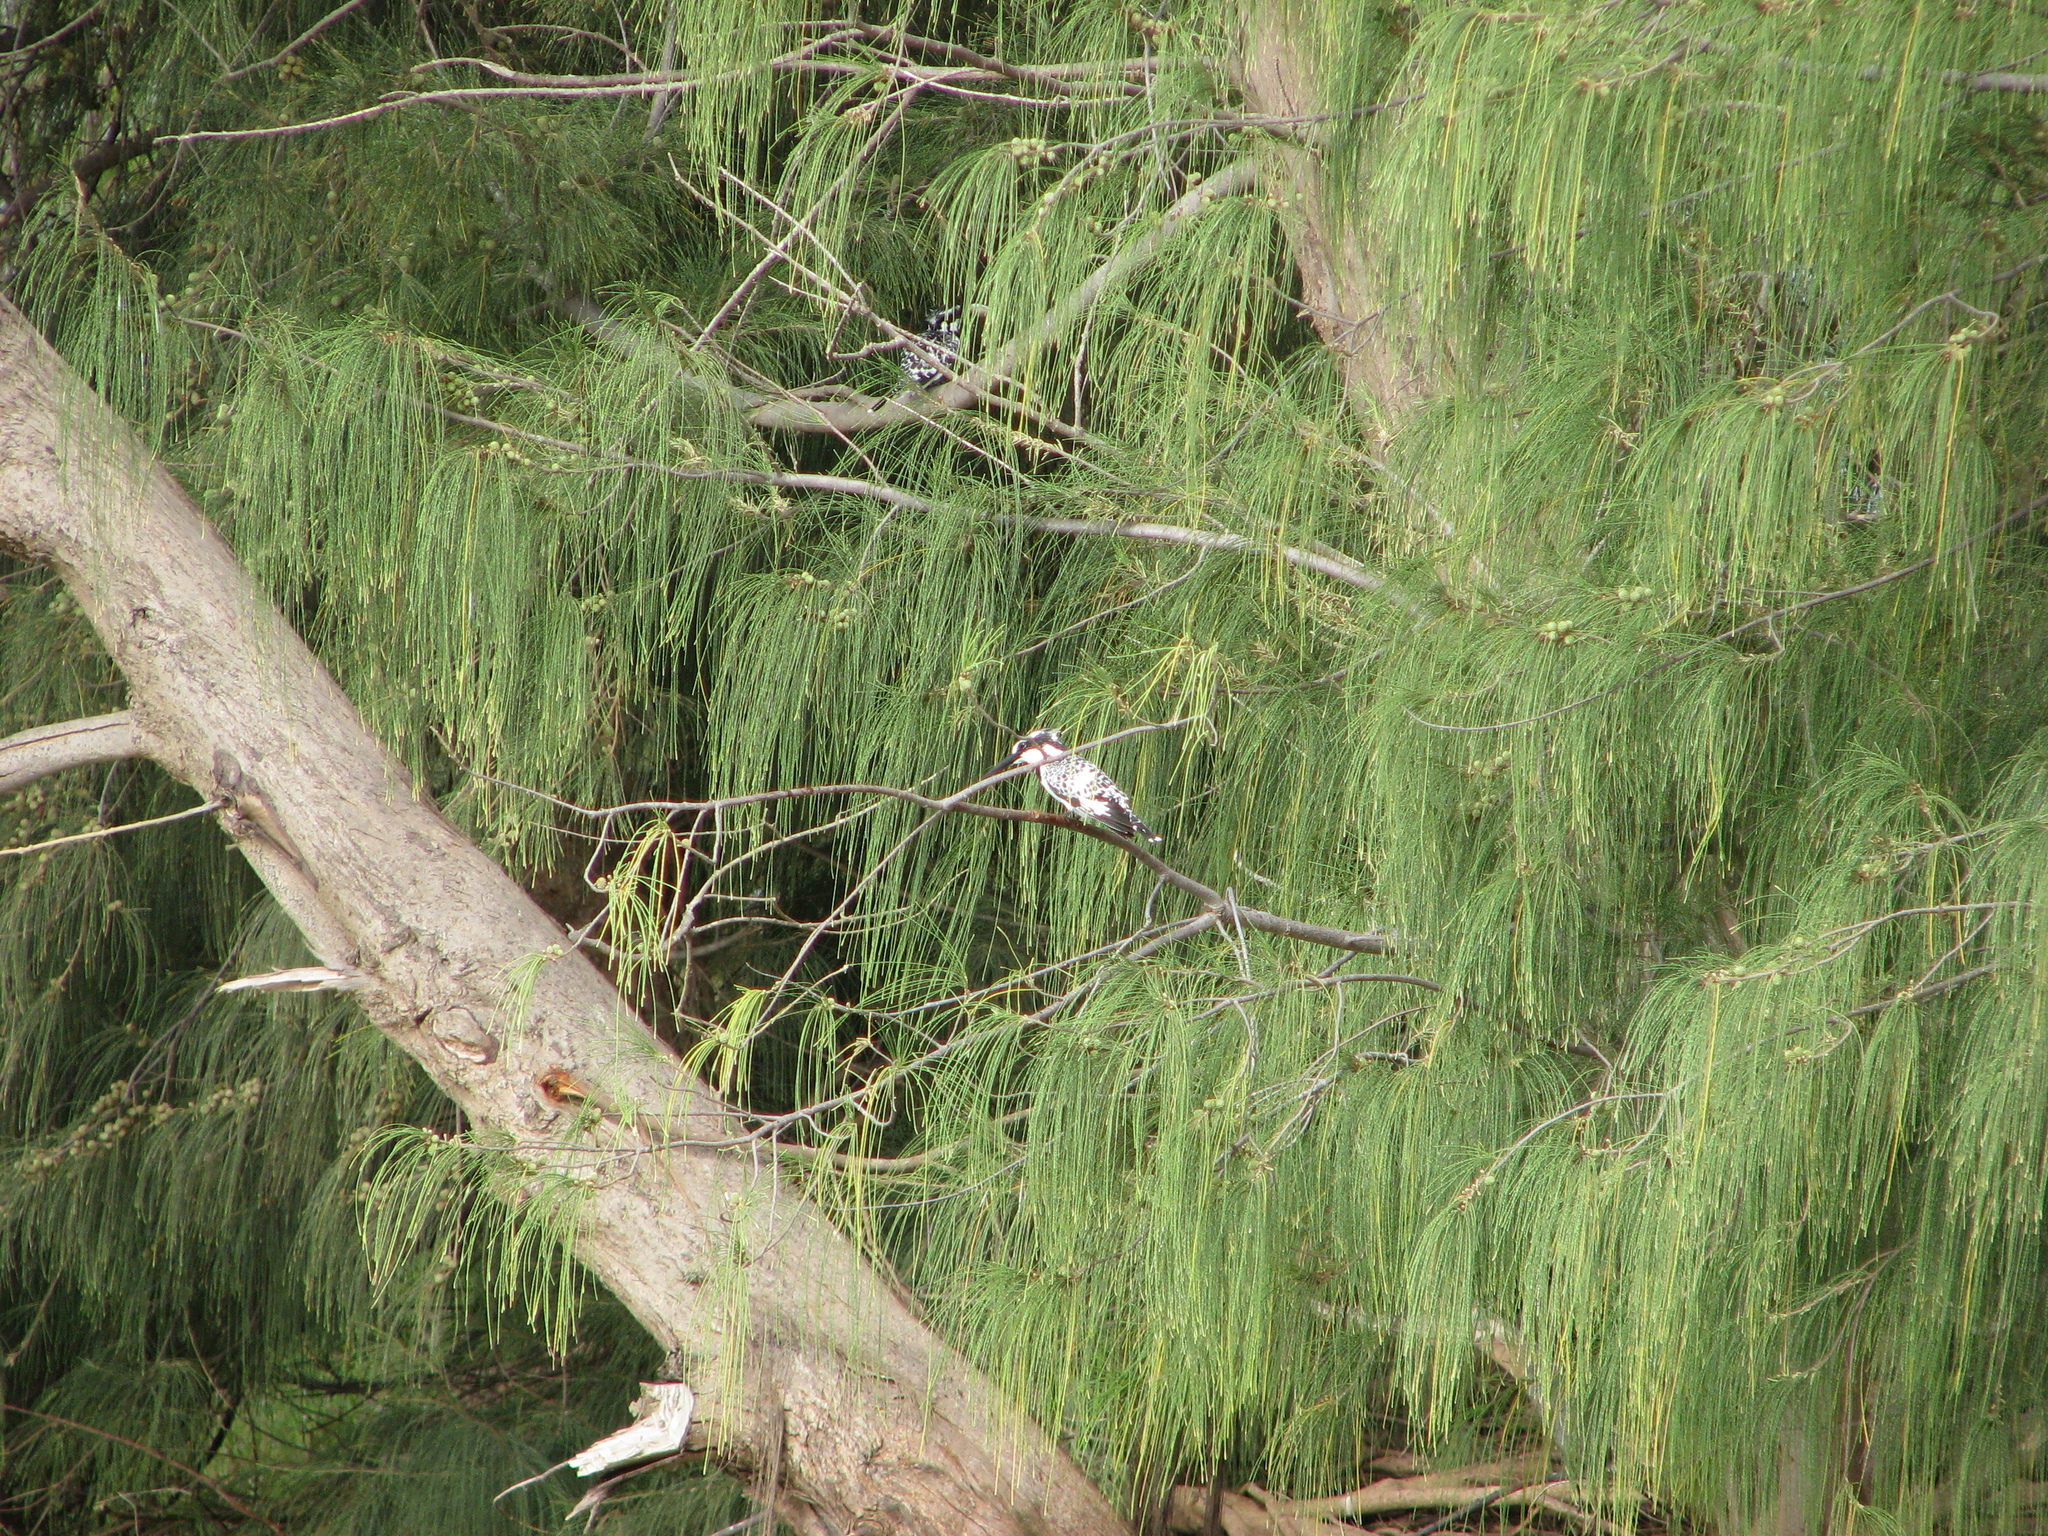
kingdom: Animalia
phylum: Chordata
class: Aves
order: Coraciiformes
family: Alcedinidae
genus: Ceryle
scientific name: Ceryle rudis
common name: Pied kingfisher
